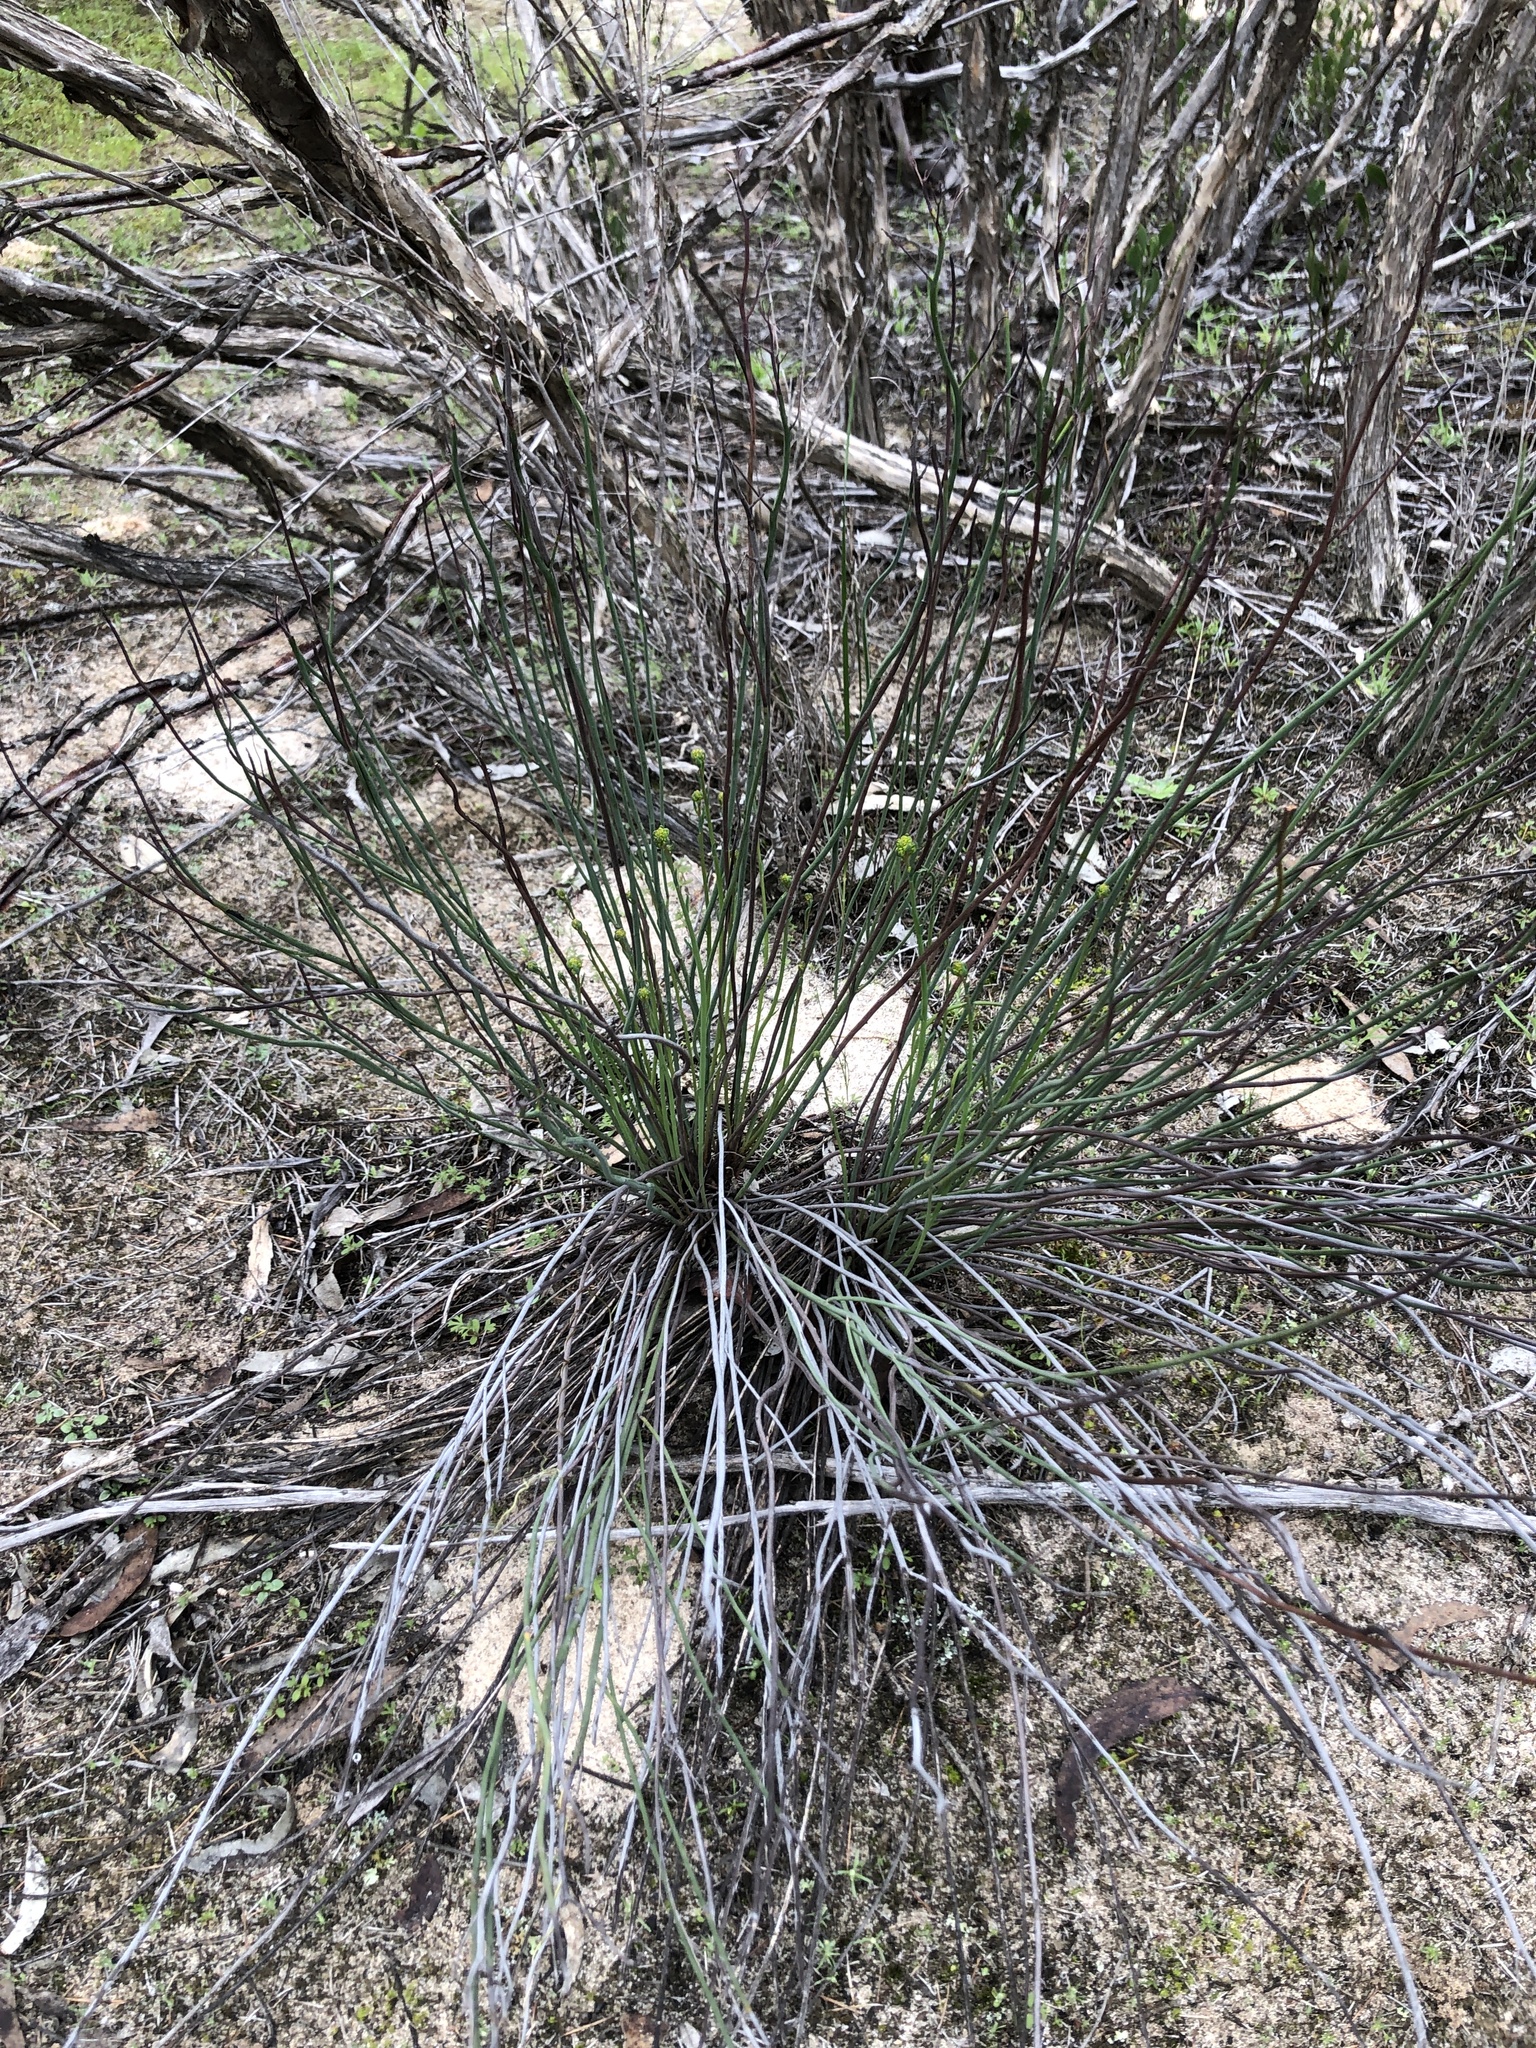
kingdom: Plantae
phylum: Tracheophyta
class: Magnoliopsida
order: Saxifragales
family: Haloragaceae
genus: Glischrocaryon
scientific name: Glischrocaryon behrii
